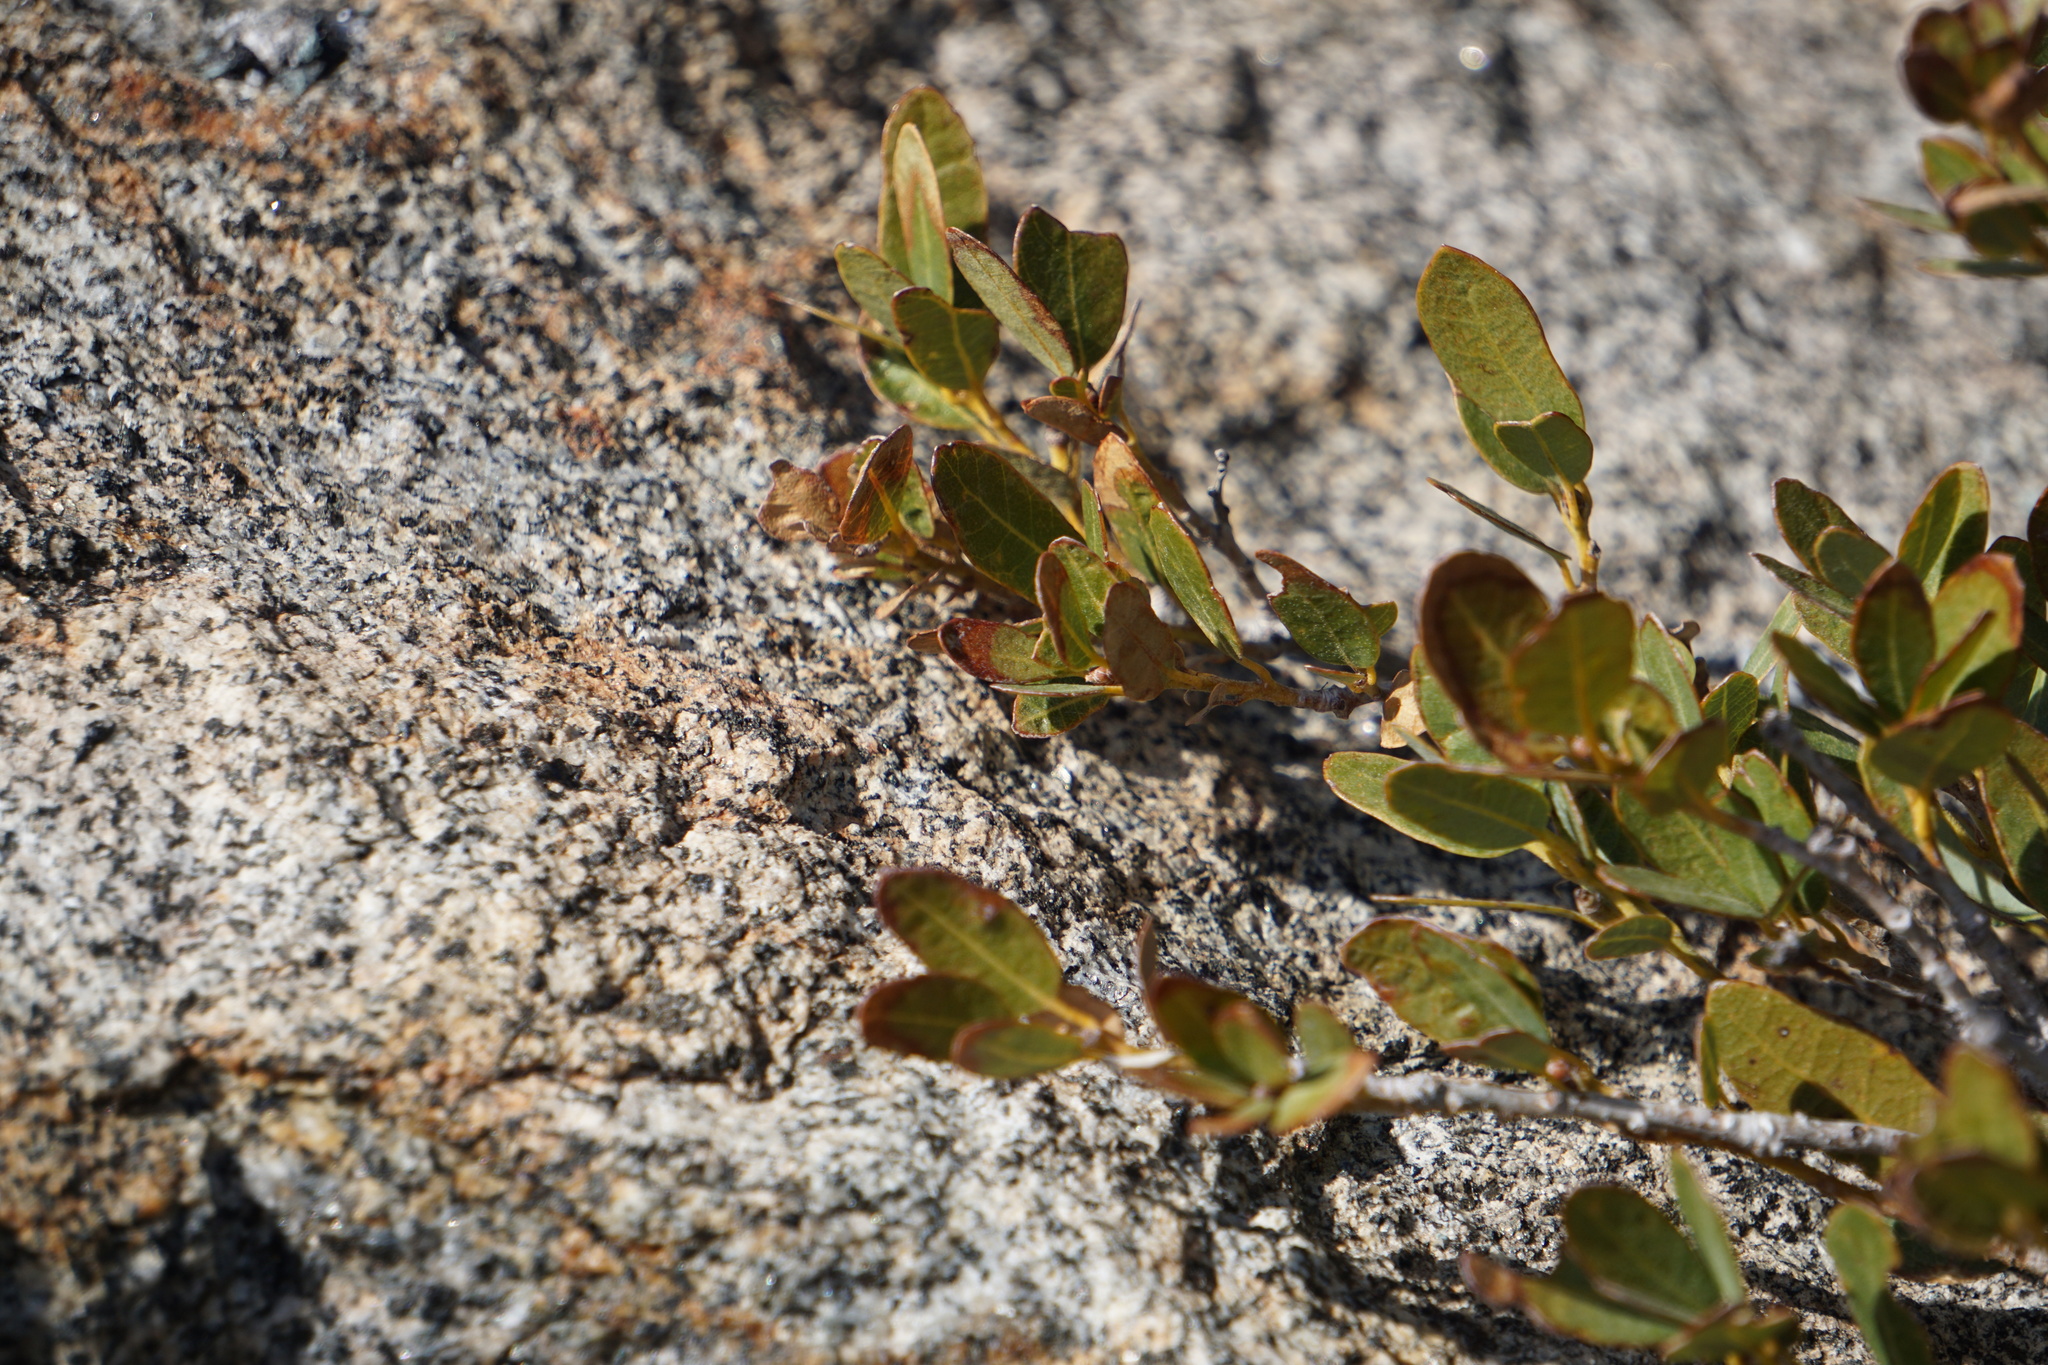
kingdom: Plantae
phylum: Tracheophyta
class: Magnoliopsida
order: Fagales
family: Fagaceae
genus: Quercus
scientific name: Quercus vacciniifolia
